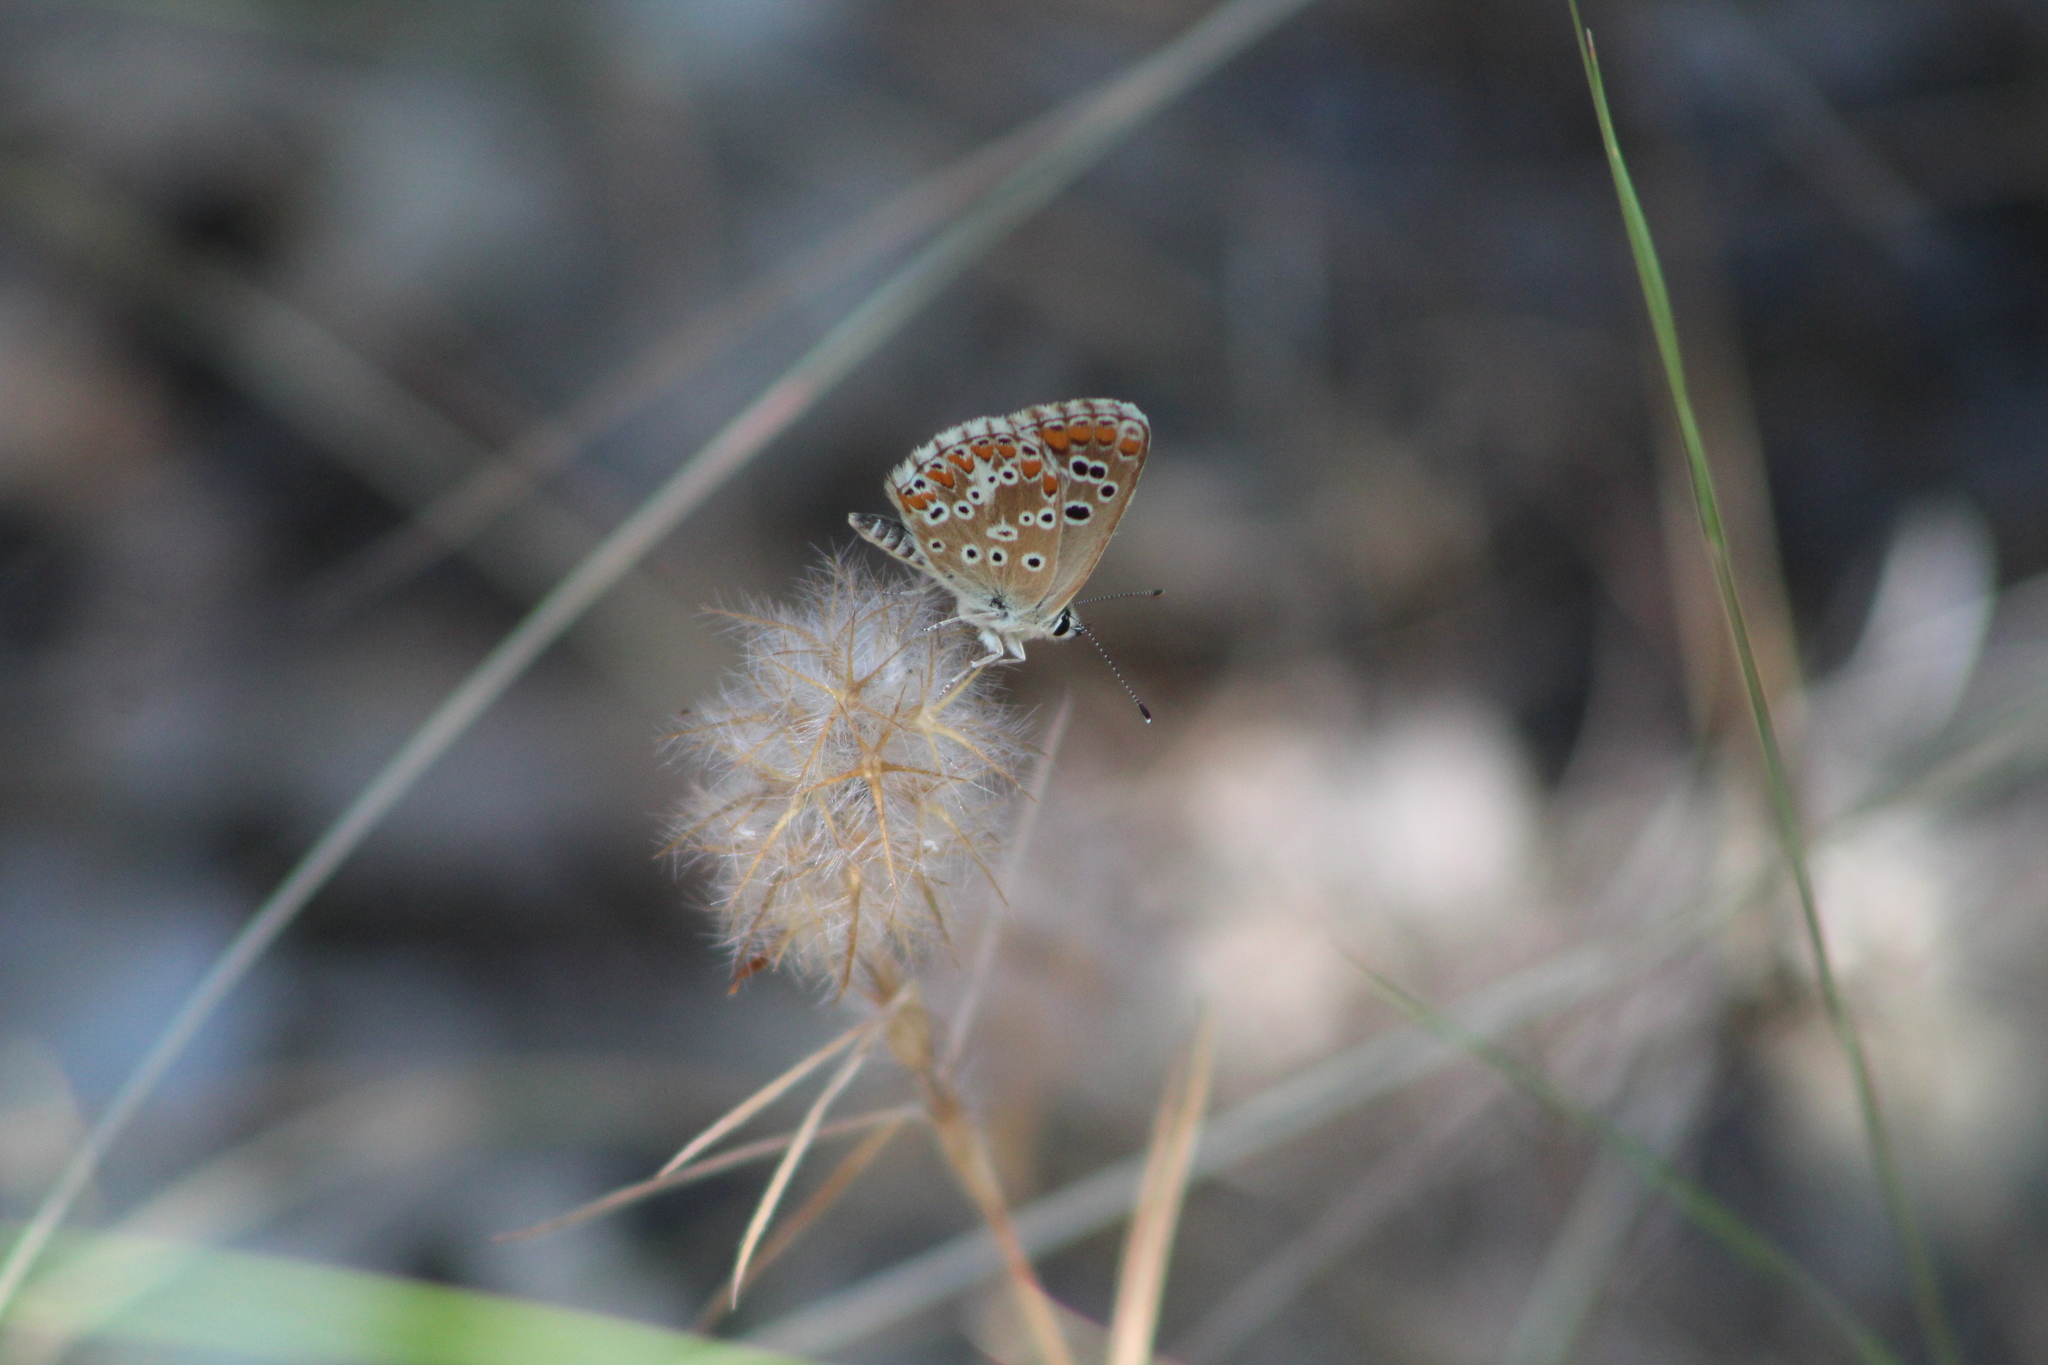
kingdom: Animalia
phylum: Arthropoda
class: Insecta
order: Lepidoptera
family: Lycaenidae
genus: Aricia
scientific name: Aricia cramera
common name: Eschscholtz´s brown  argus
